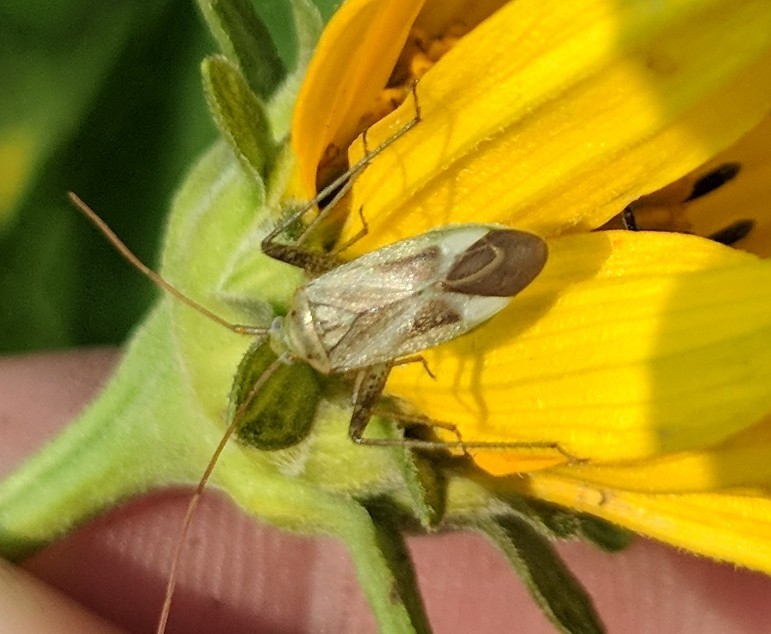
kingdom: Animalia
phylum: Arthropoda
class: Insecta
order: Hemiptera
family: Miridae
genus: Adelphocoris
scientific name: Adelphocoris lineolatus
